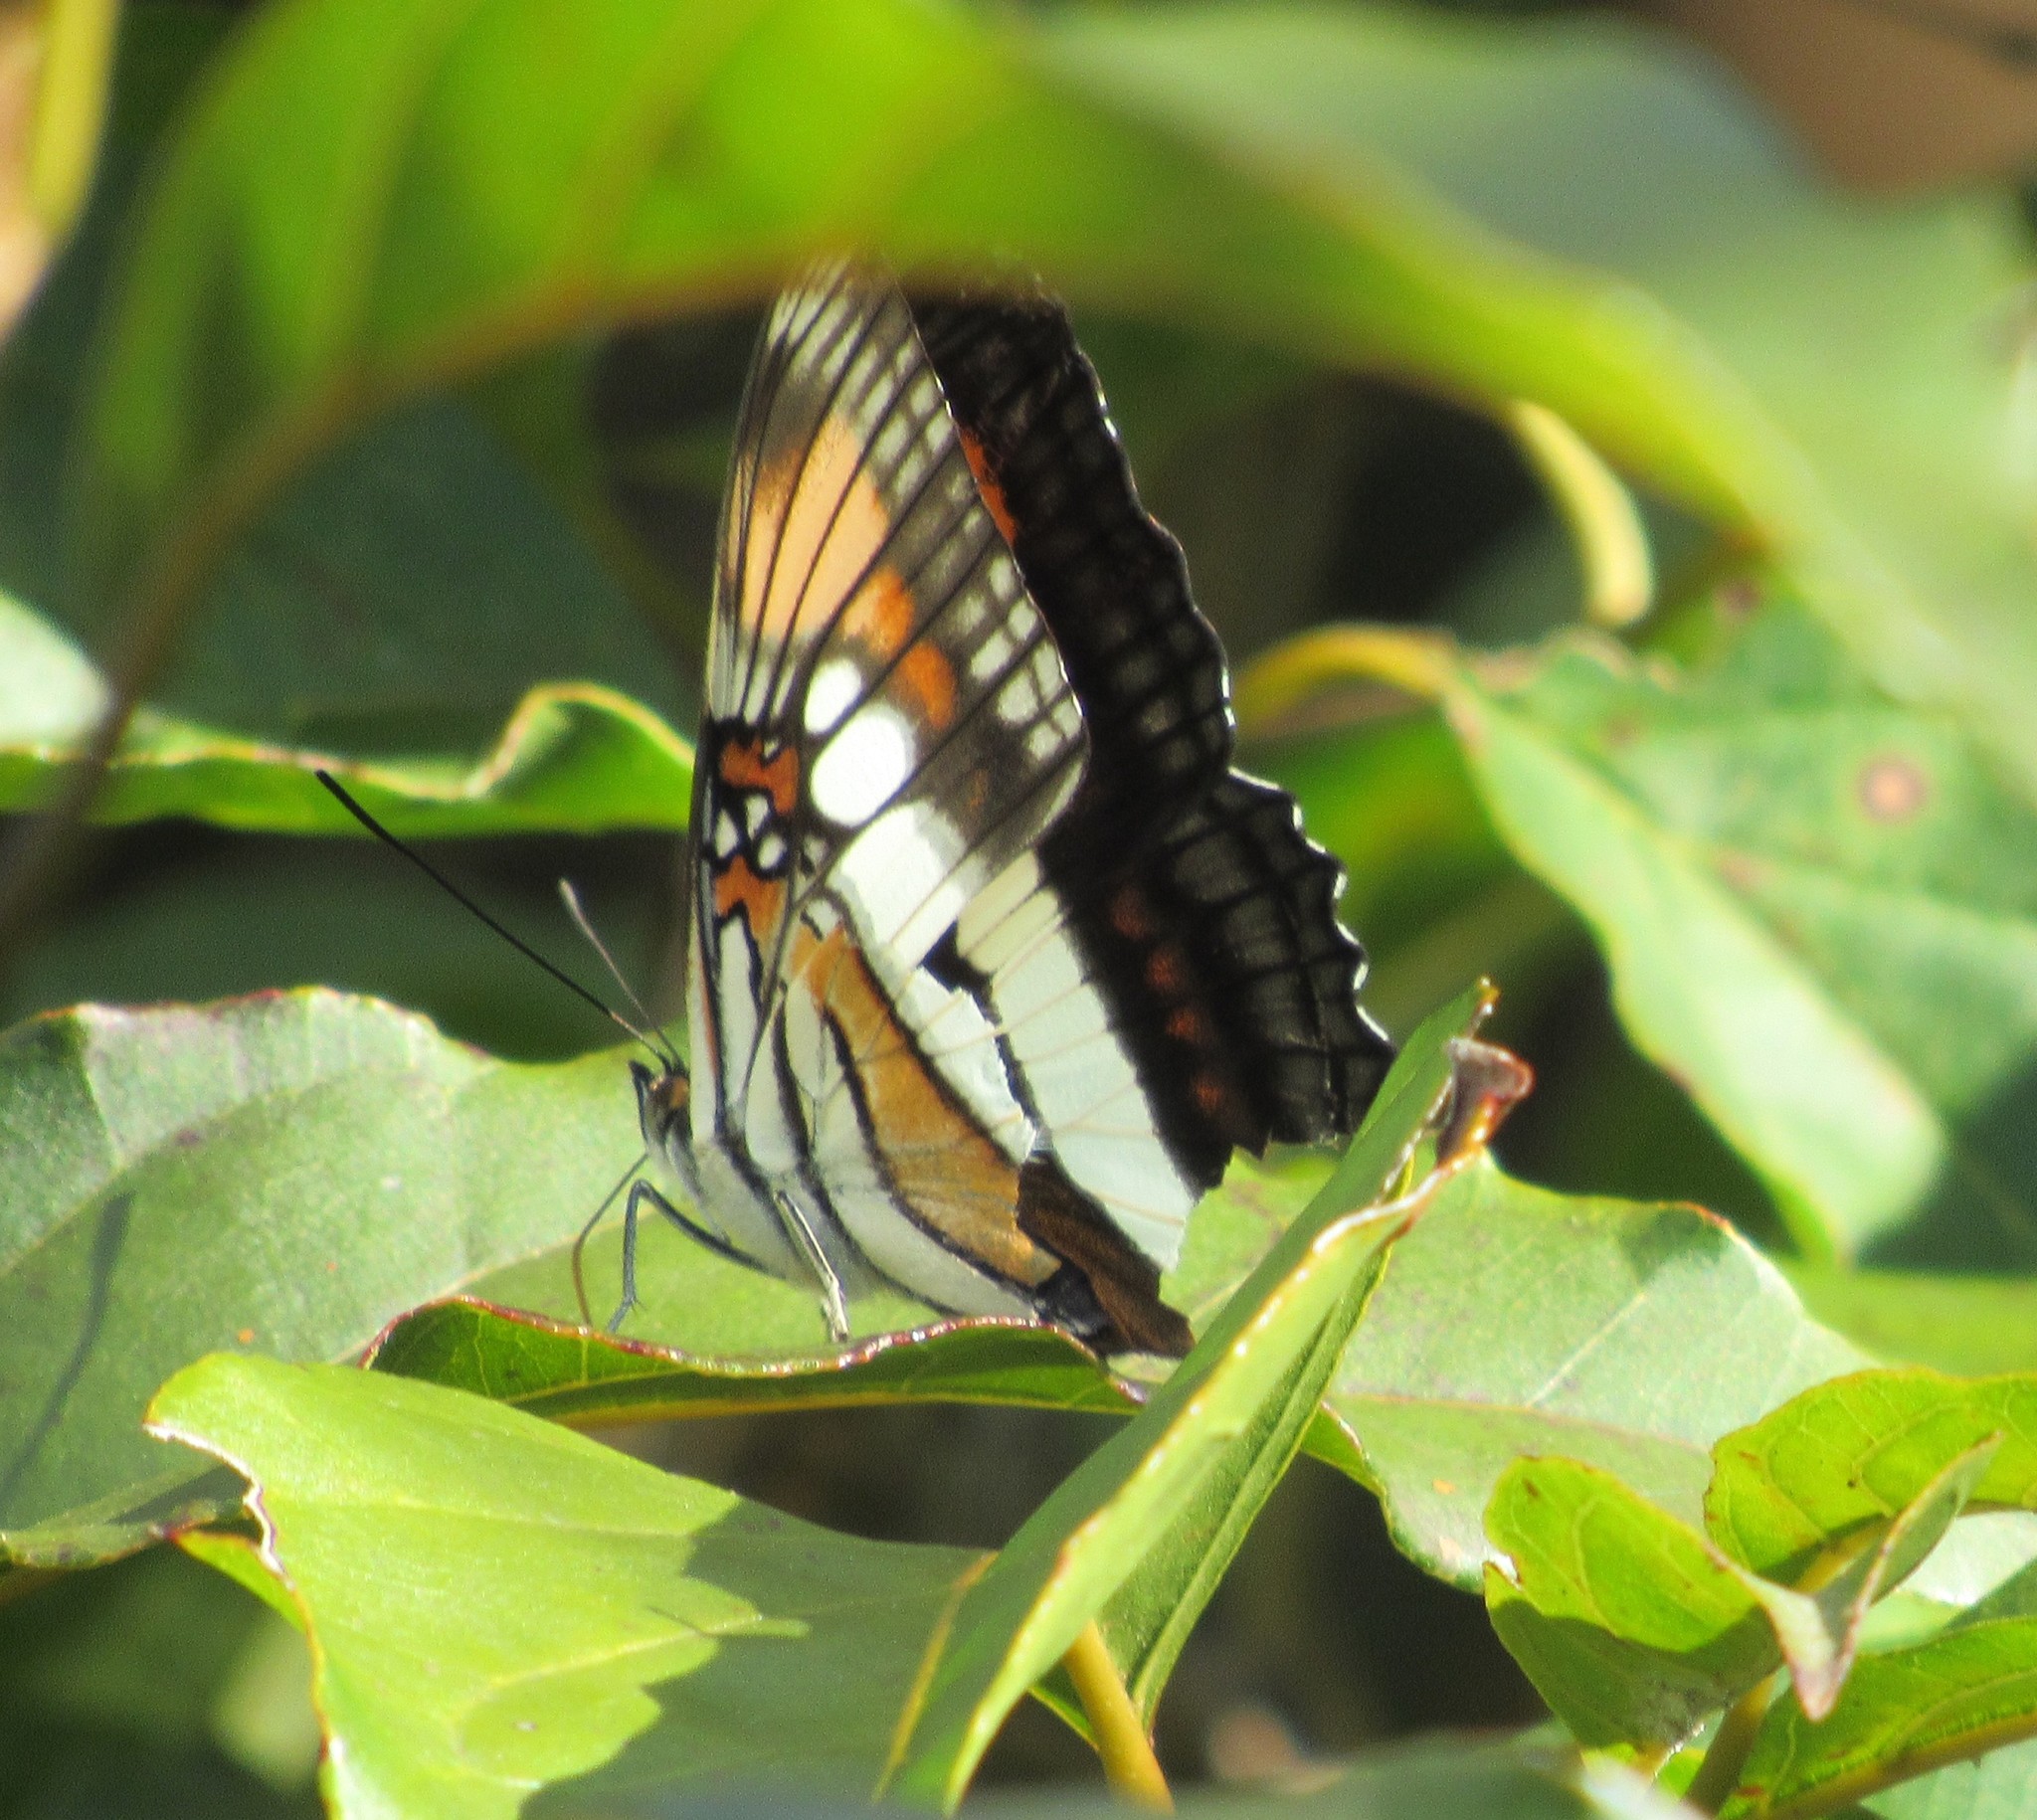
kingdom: Animalia
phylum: Arthropoda
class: Insecta
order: Lepidoptera
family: Nymphalidae
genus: Limenitis
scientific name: Limenitis serpa
